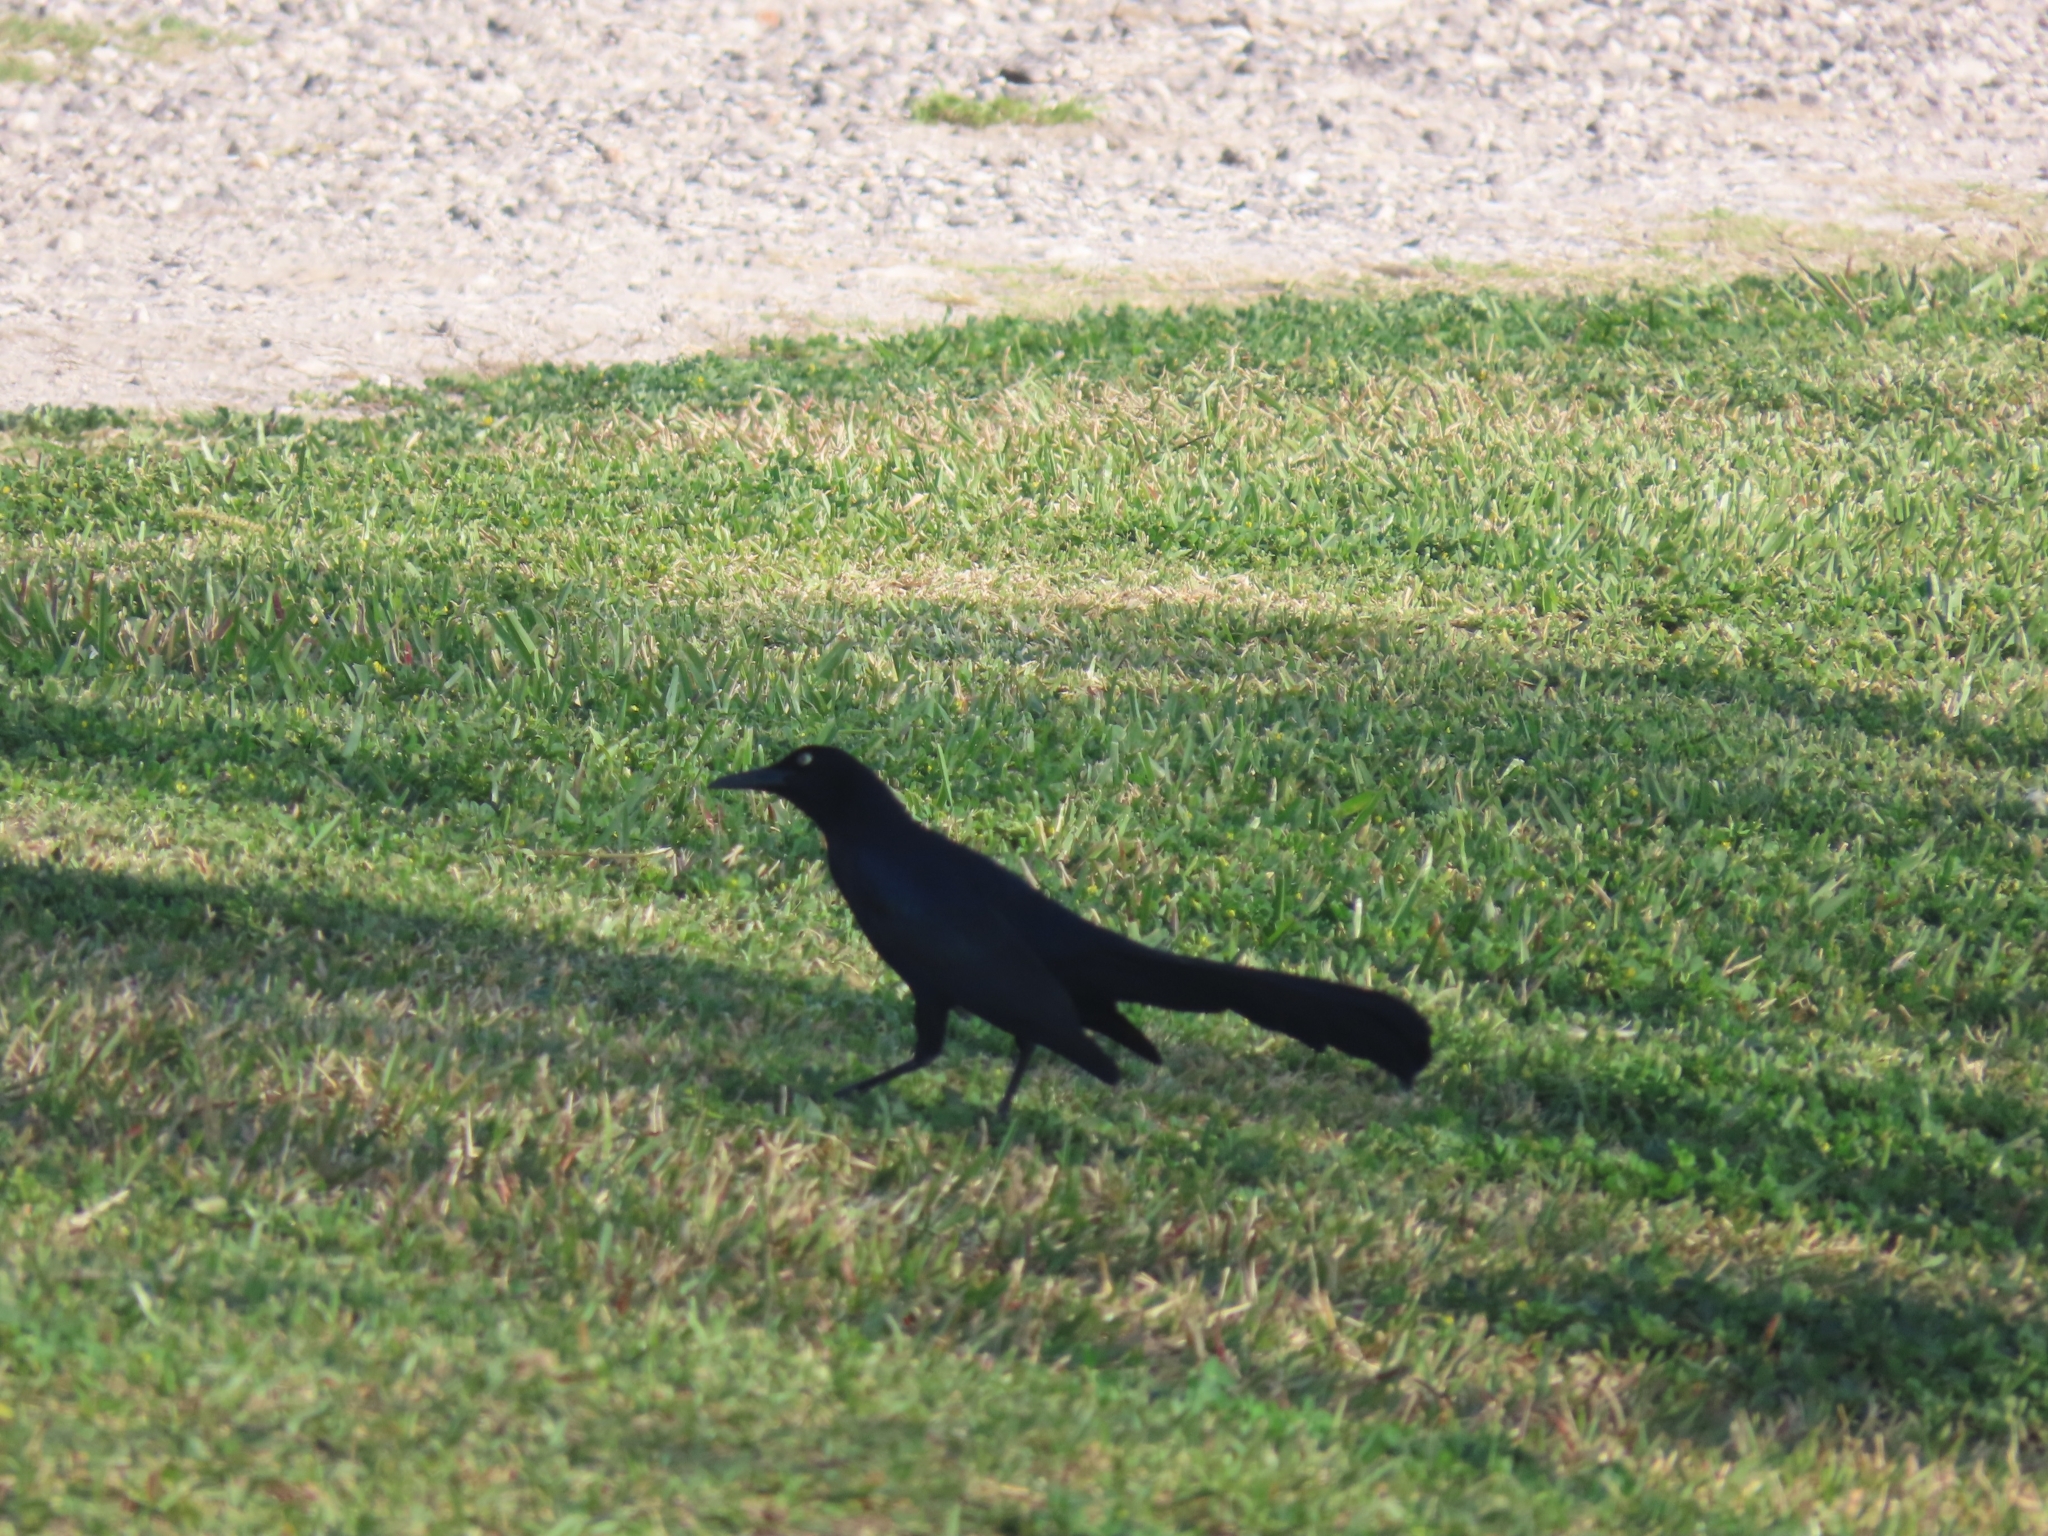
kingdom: Animalia
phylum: Chordata
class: Aves
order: Passeriformes
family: Icteridae
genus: Quiscalus
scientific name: Quiscalus mexicanus
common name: Great-tailed grackle
